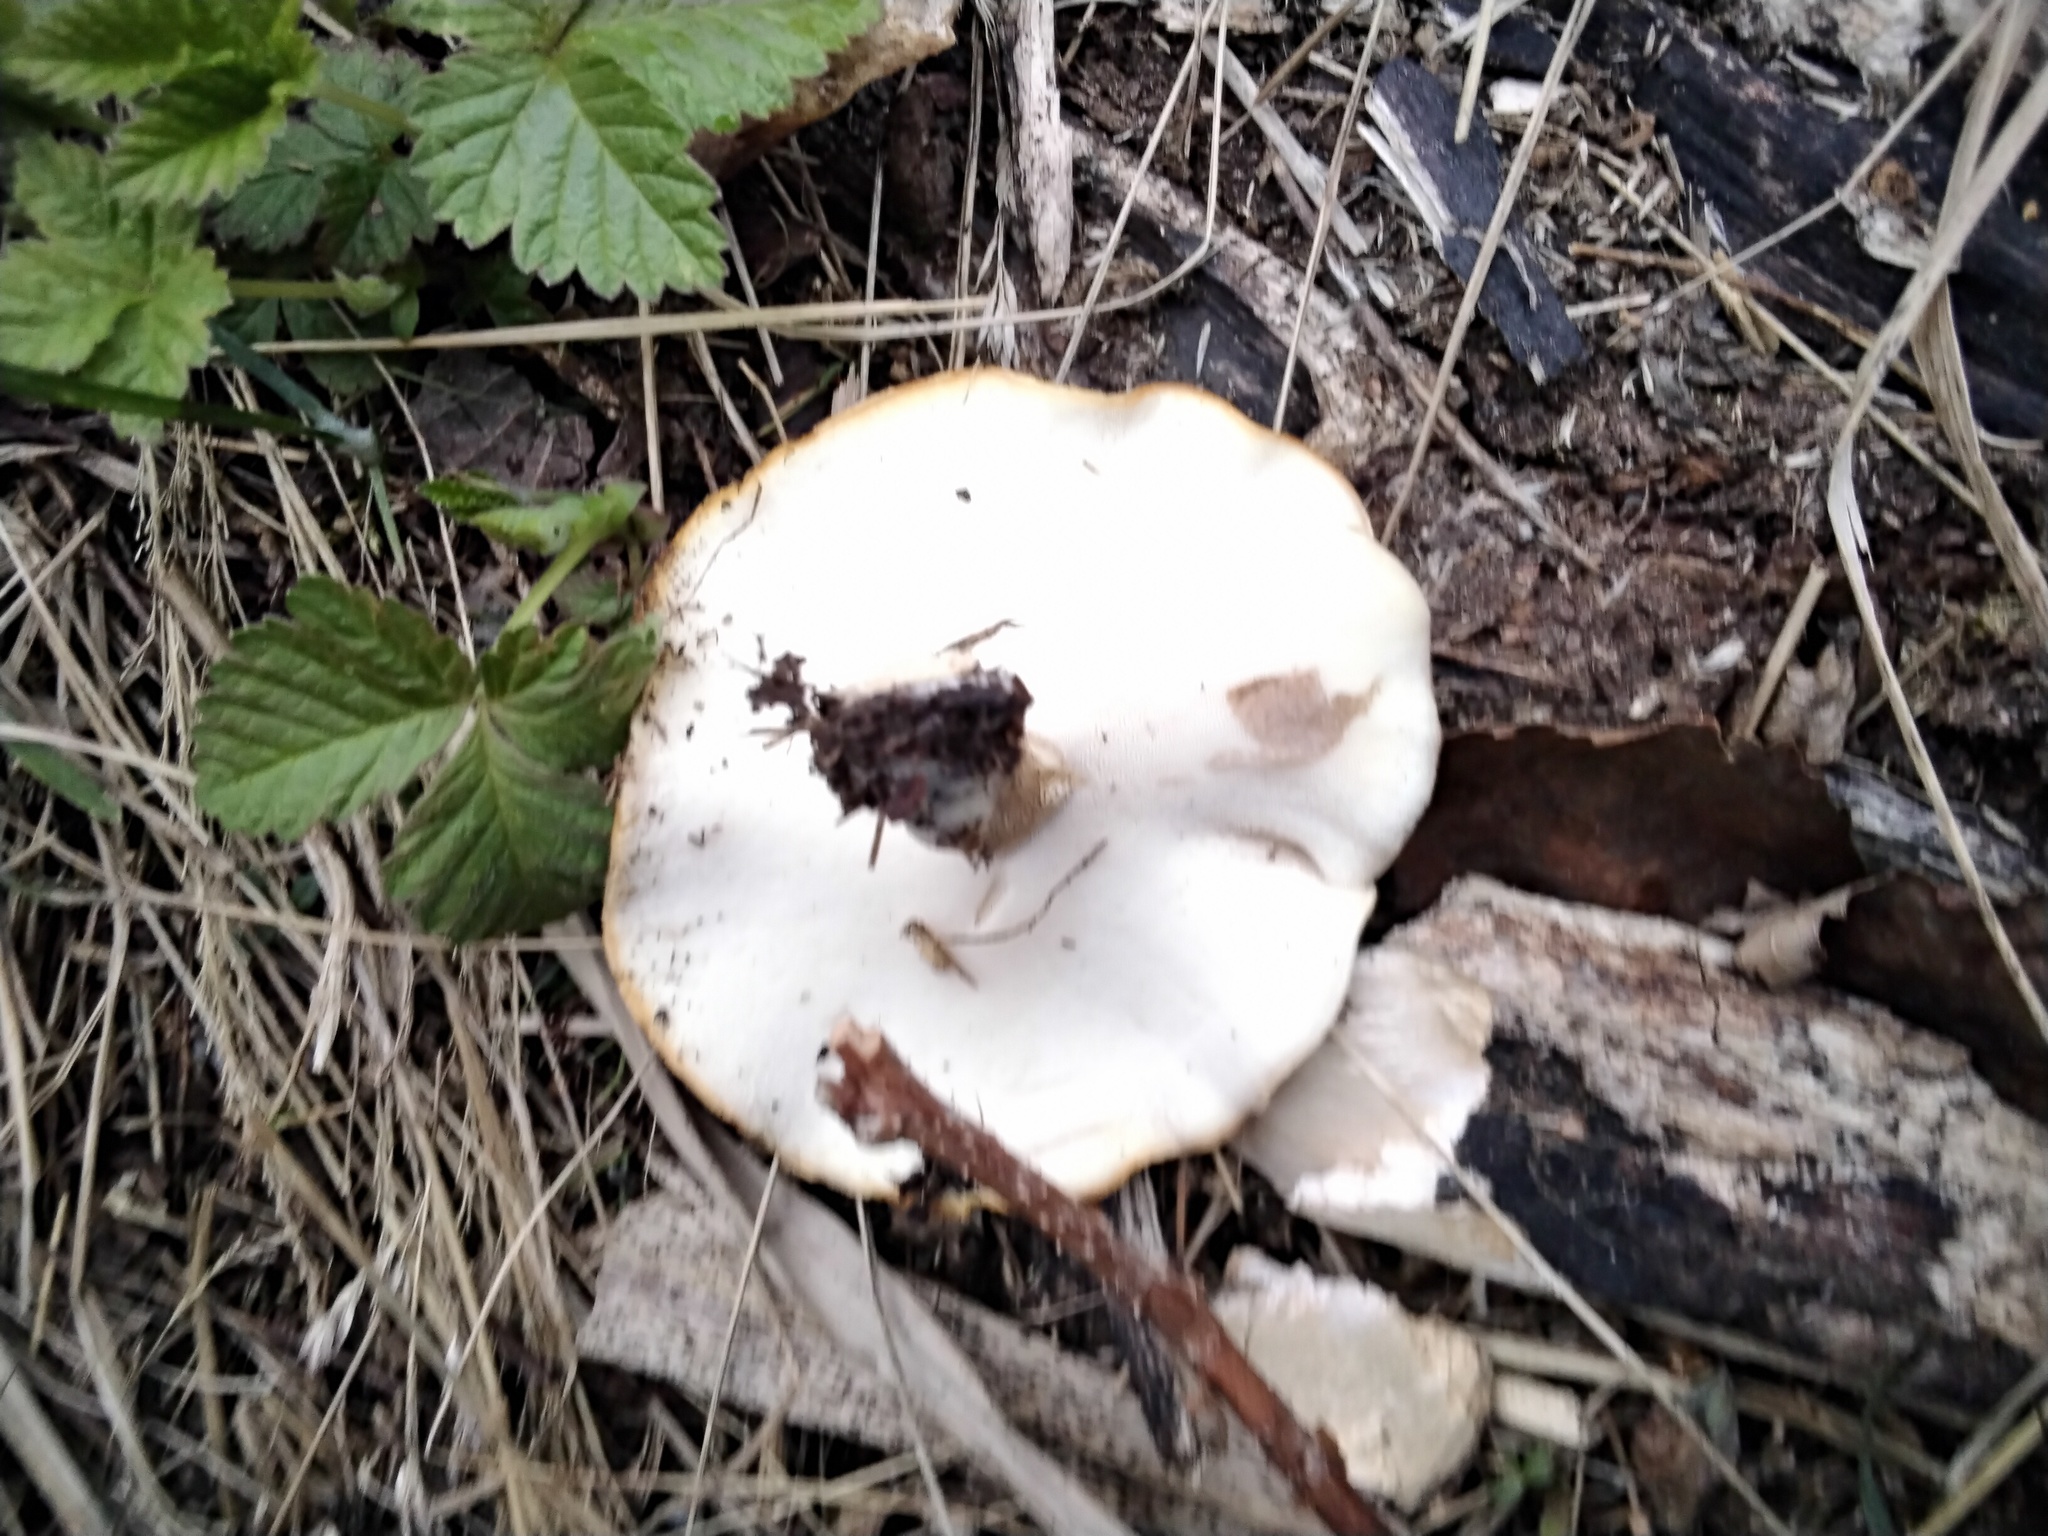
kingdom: Fungi
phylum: Basidiomycota
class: Agaricomycetes
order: Polyporales
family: Polyporaceae
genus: Lentinus
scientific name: Lentinus brumalis
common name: Winter polypore
